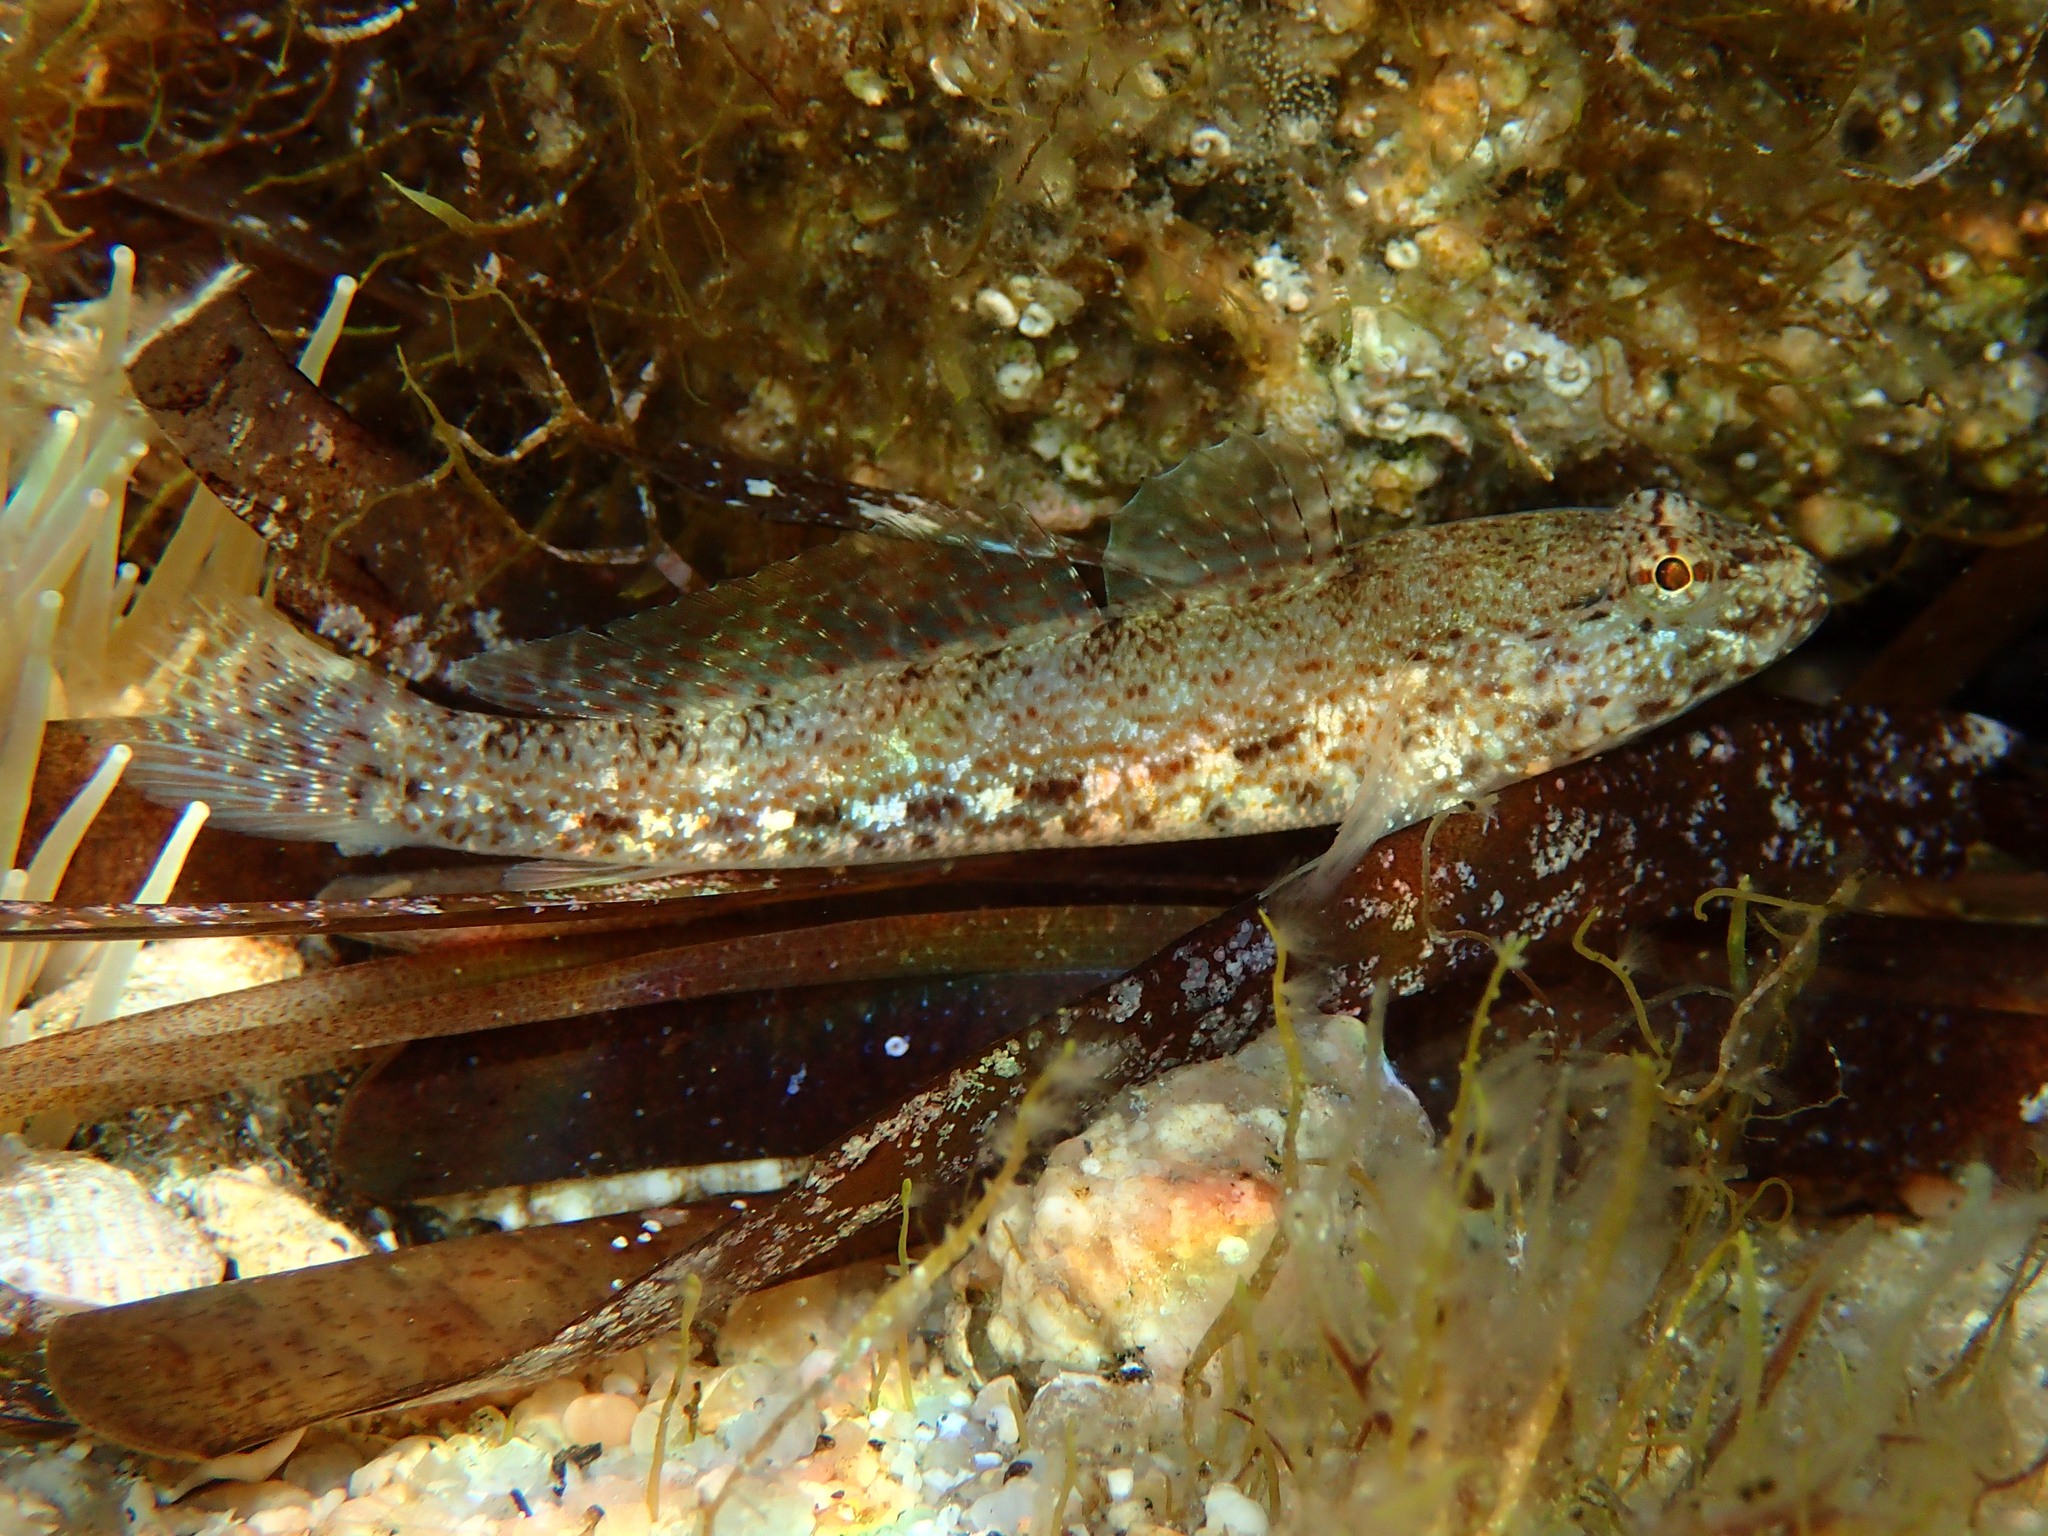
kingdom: Animalia
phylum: Chordata
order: Perciformes
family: Gobiidae
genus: Gobius
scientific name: Gobius incognitus
